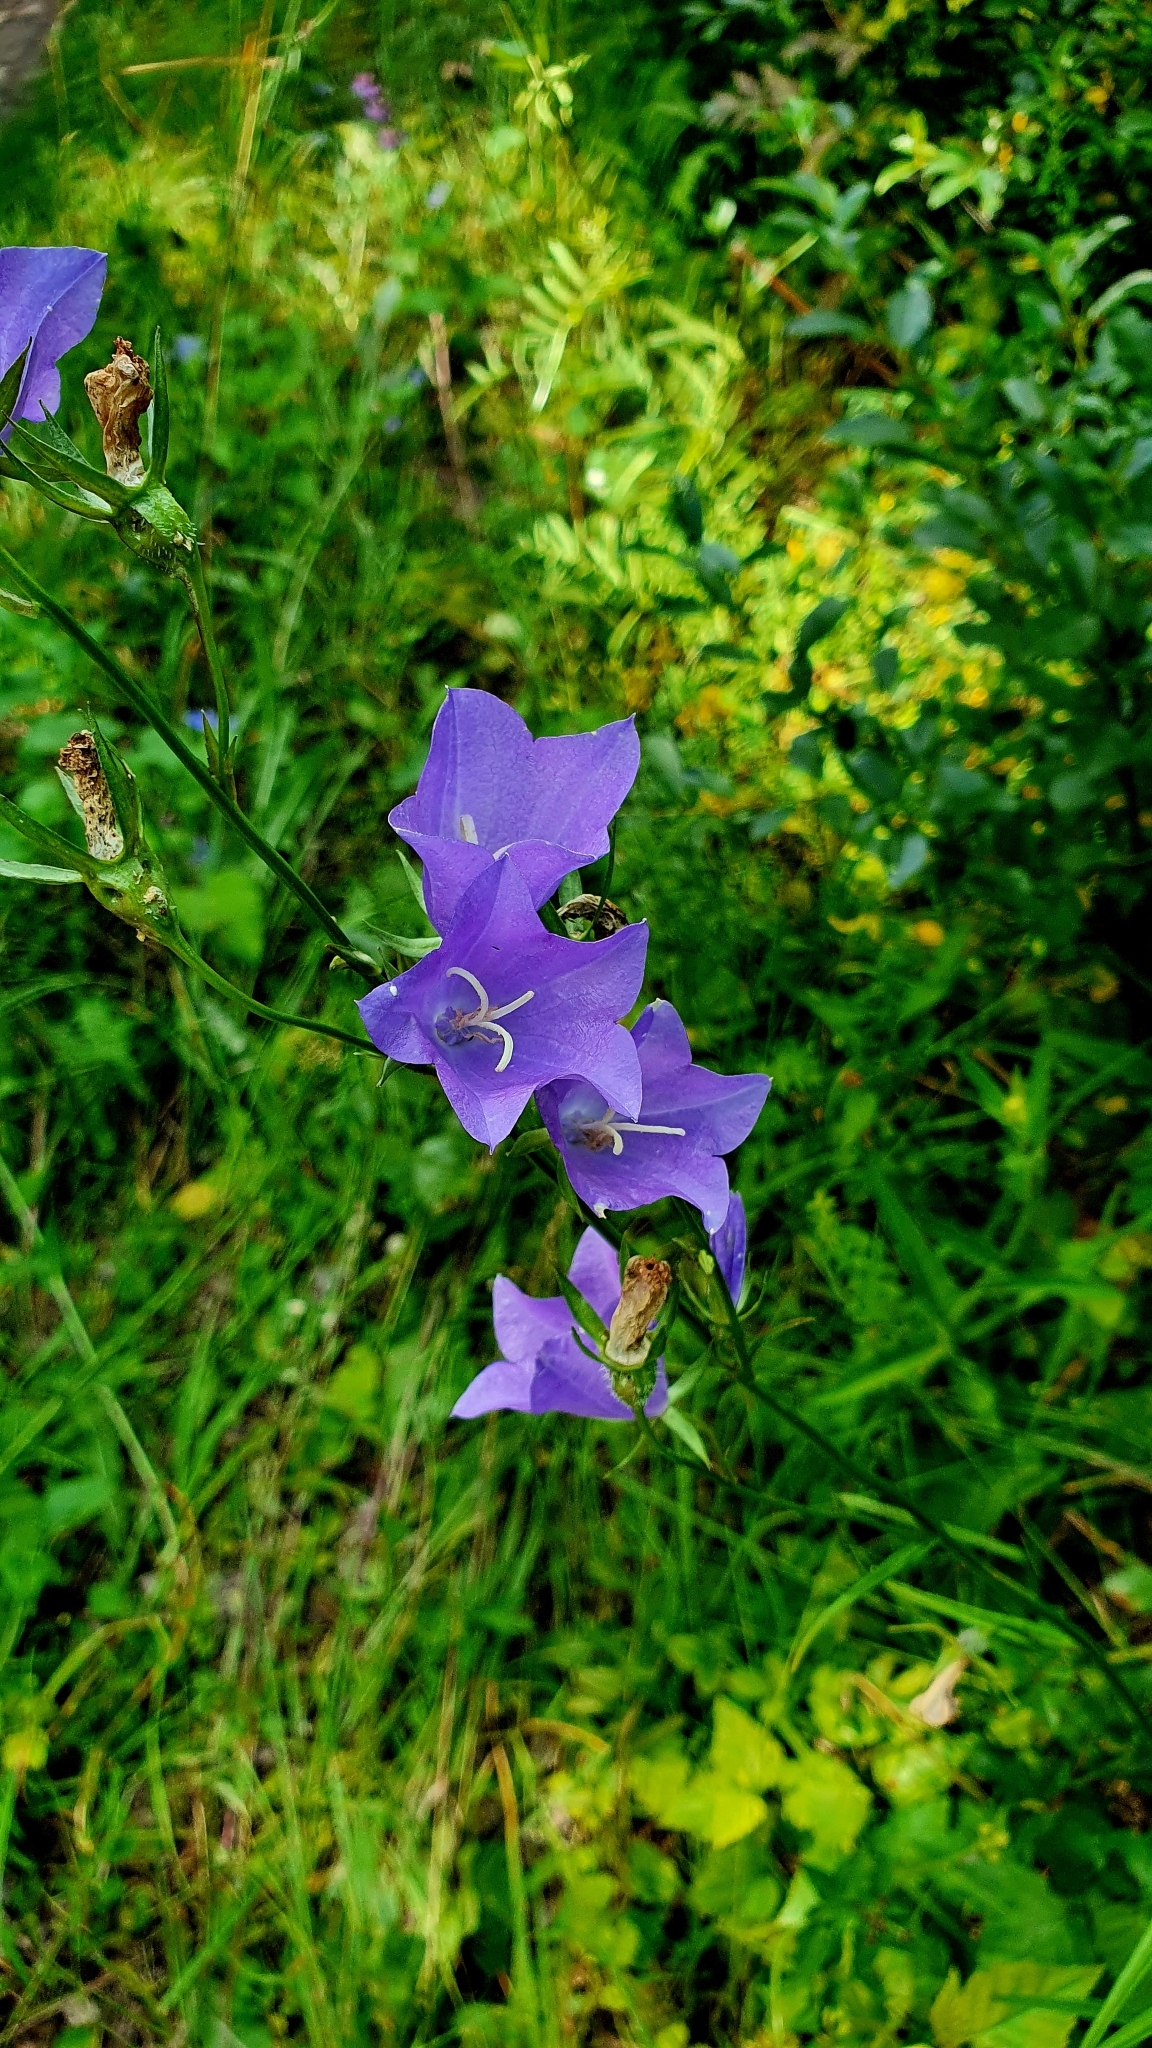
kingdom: Plantae
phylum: Tracheophyta
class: Magnoliopsida
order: Asterales
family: Campanulaceae
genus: Campanula
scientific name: Campanula persicifolia
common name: Peach-leaved bellflower
